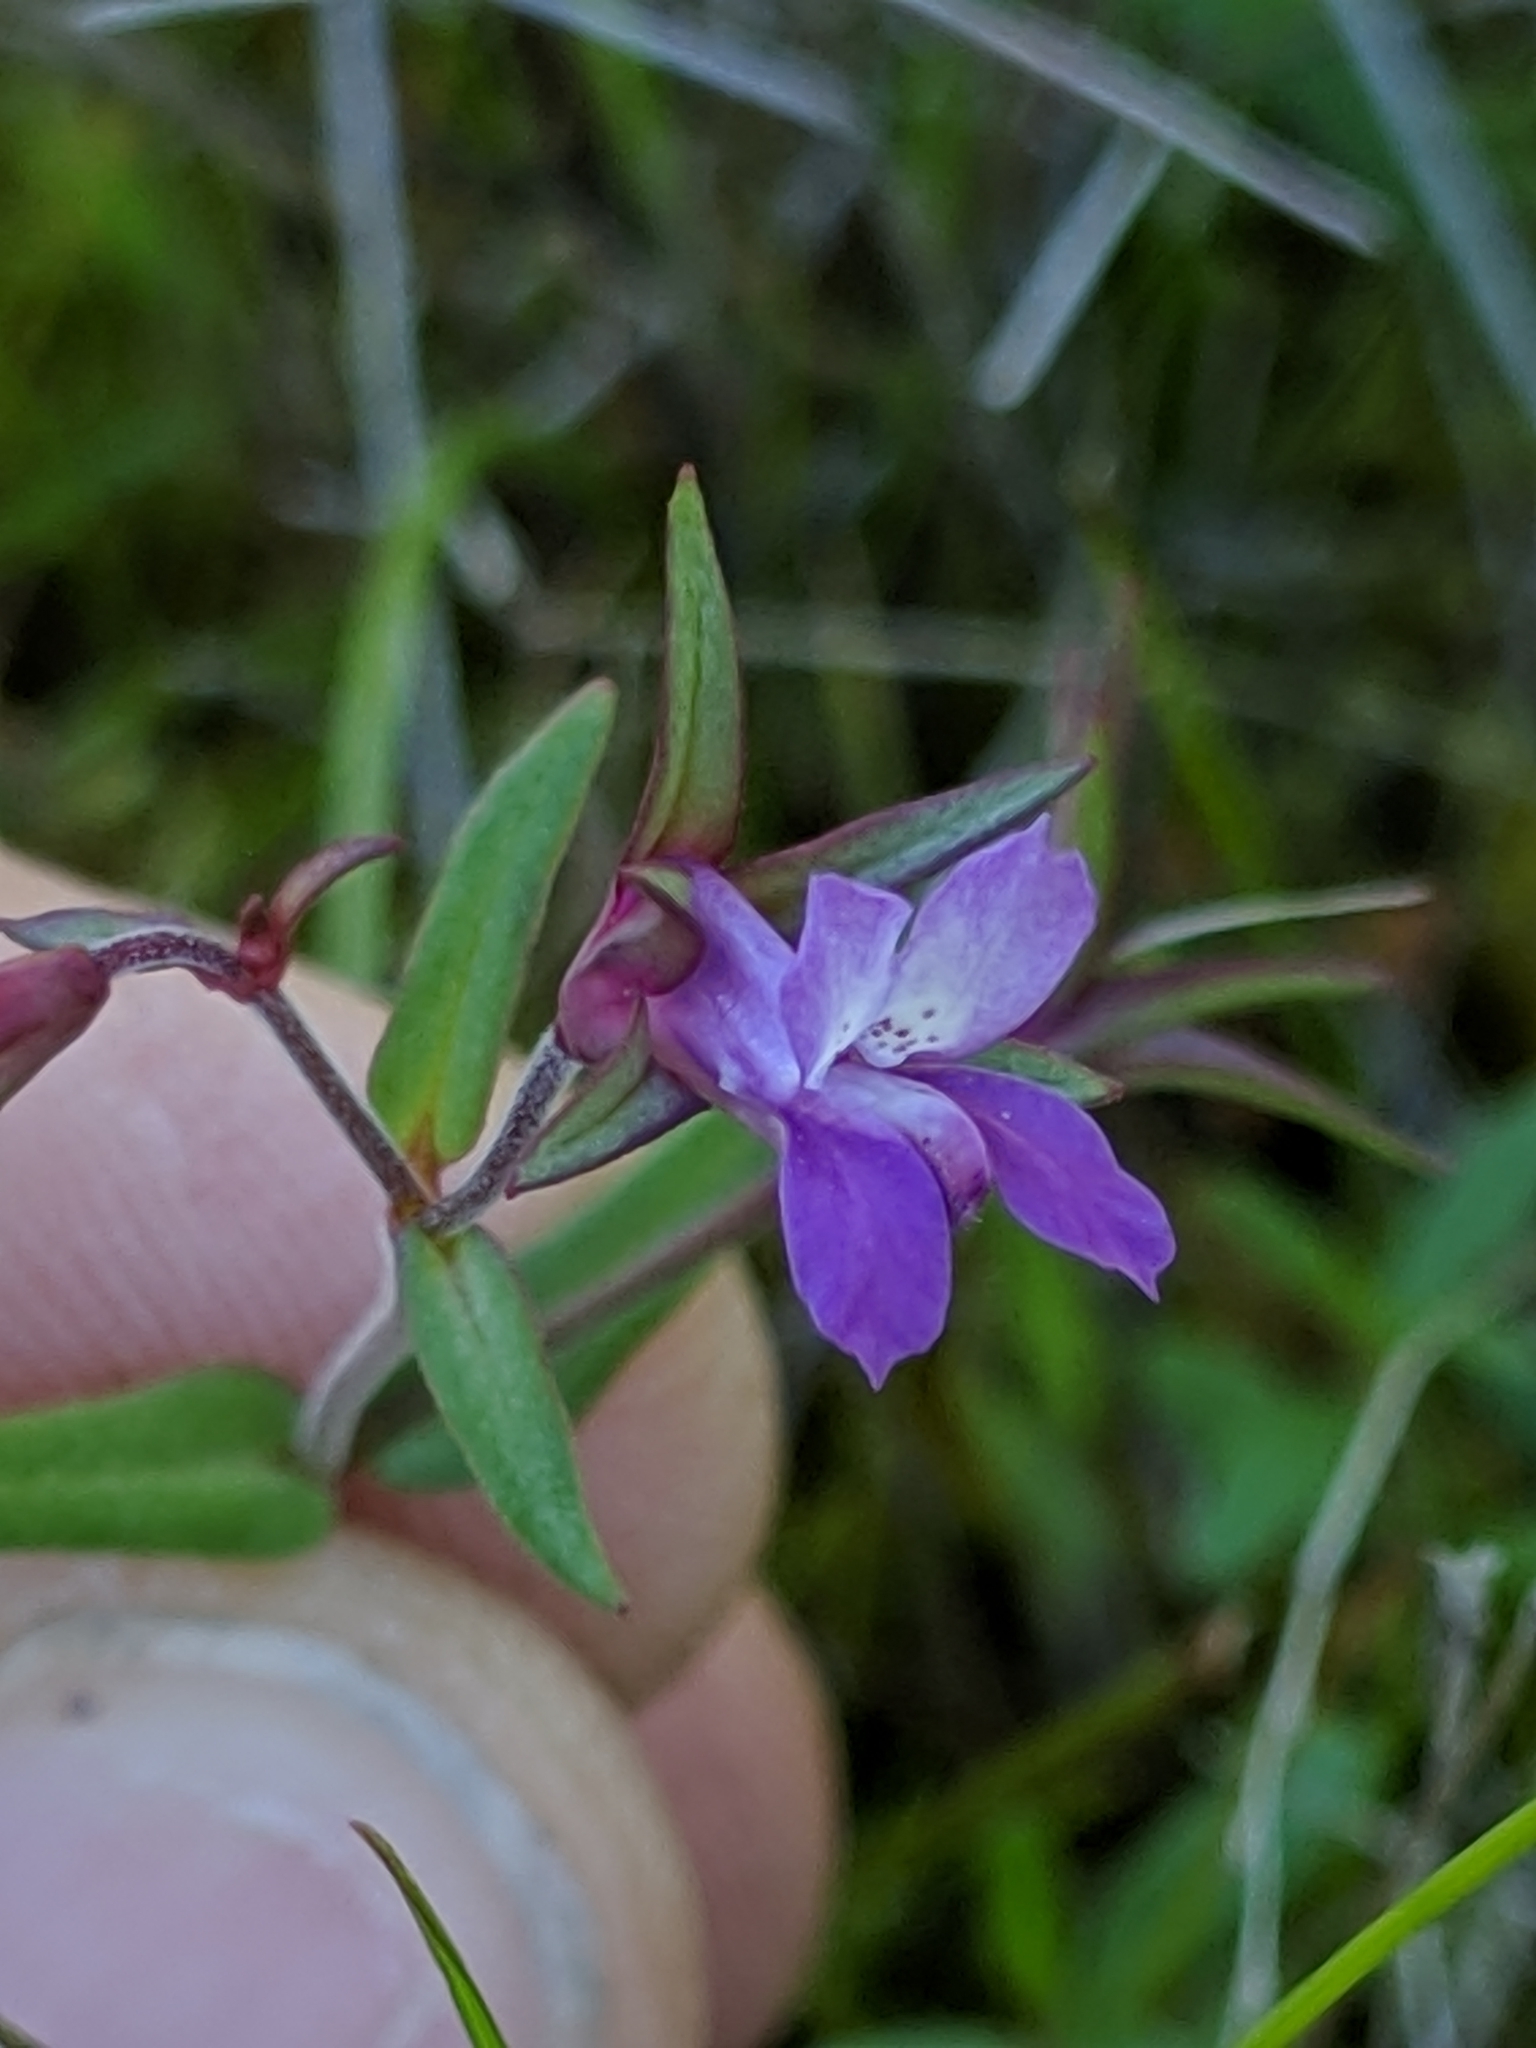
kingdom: Plantae
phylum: Tracheophyta
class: Magnoliopsida
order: Lamiales
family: Plantaginaceae
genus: Collinsia
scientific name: Collinsia sparsiflora
